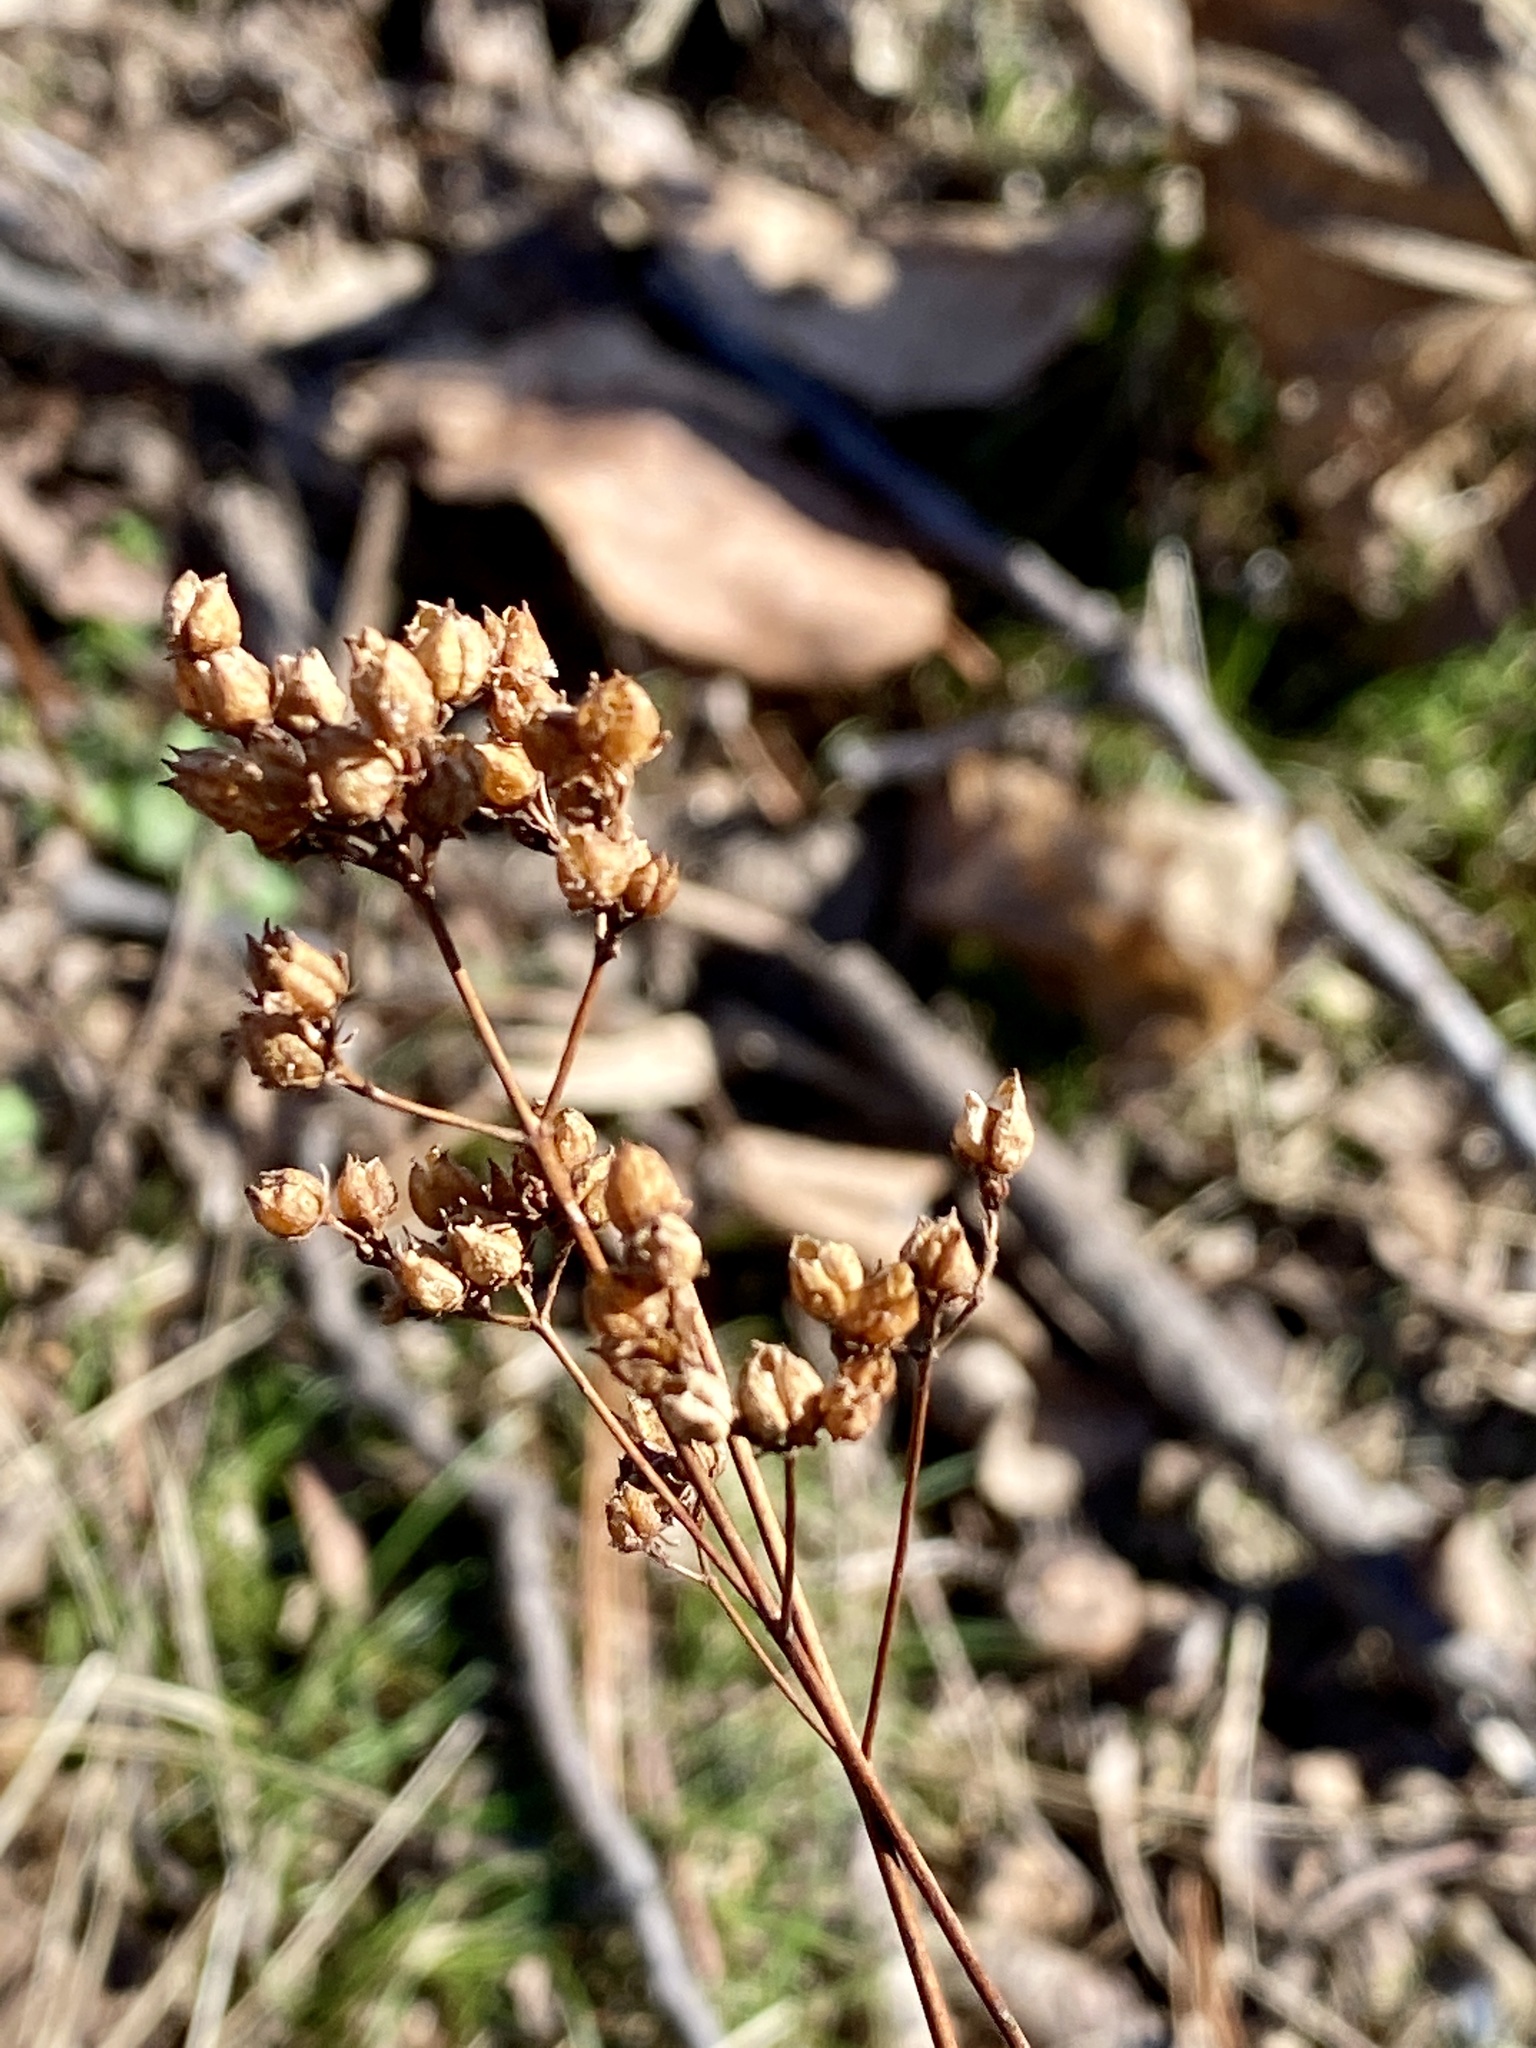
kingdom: Plantae
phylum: Tracheophyta
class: Magnoliopsida
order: Malpighiales
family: Hypericaceae
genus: Hypericum
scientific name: Hypericum punctatum
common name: Spotted st. john's-wort
